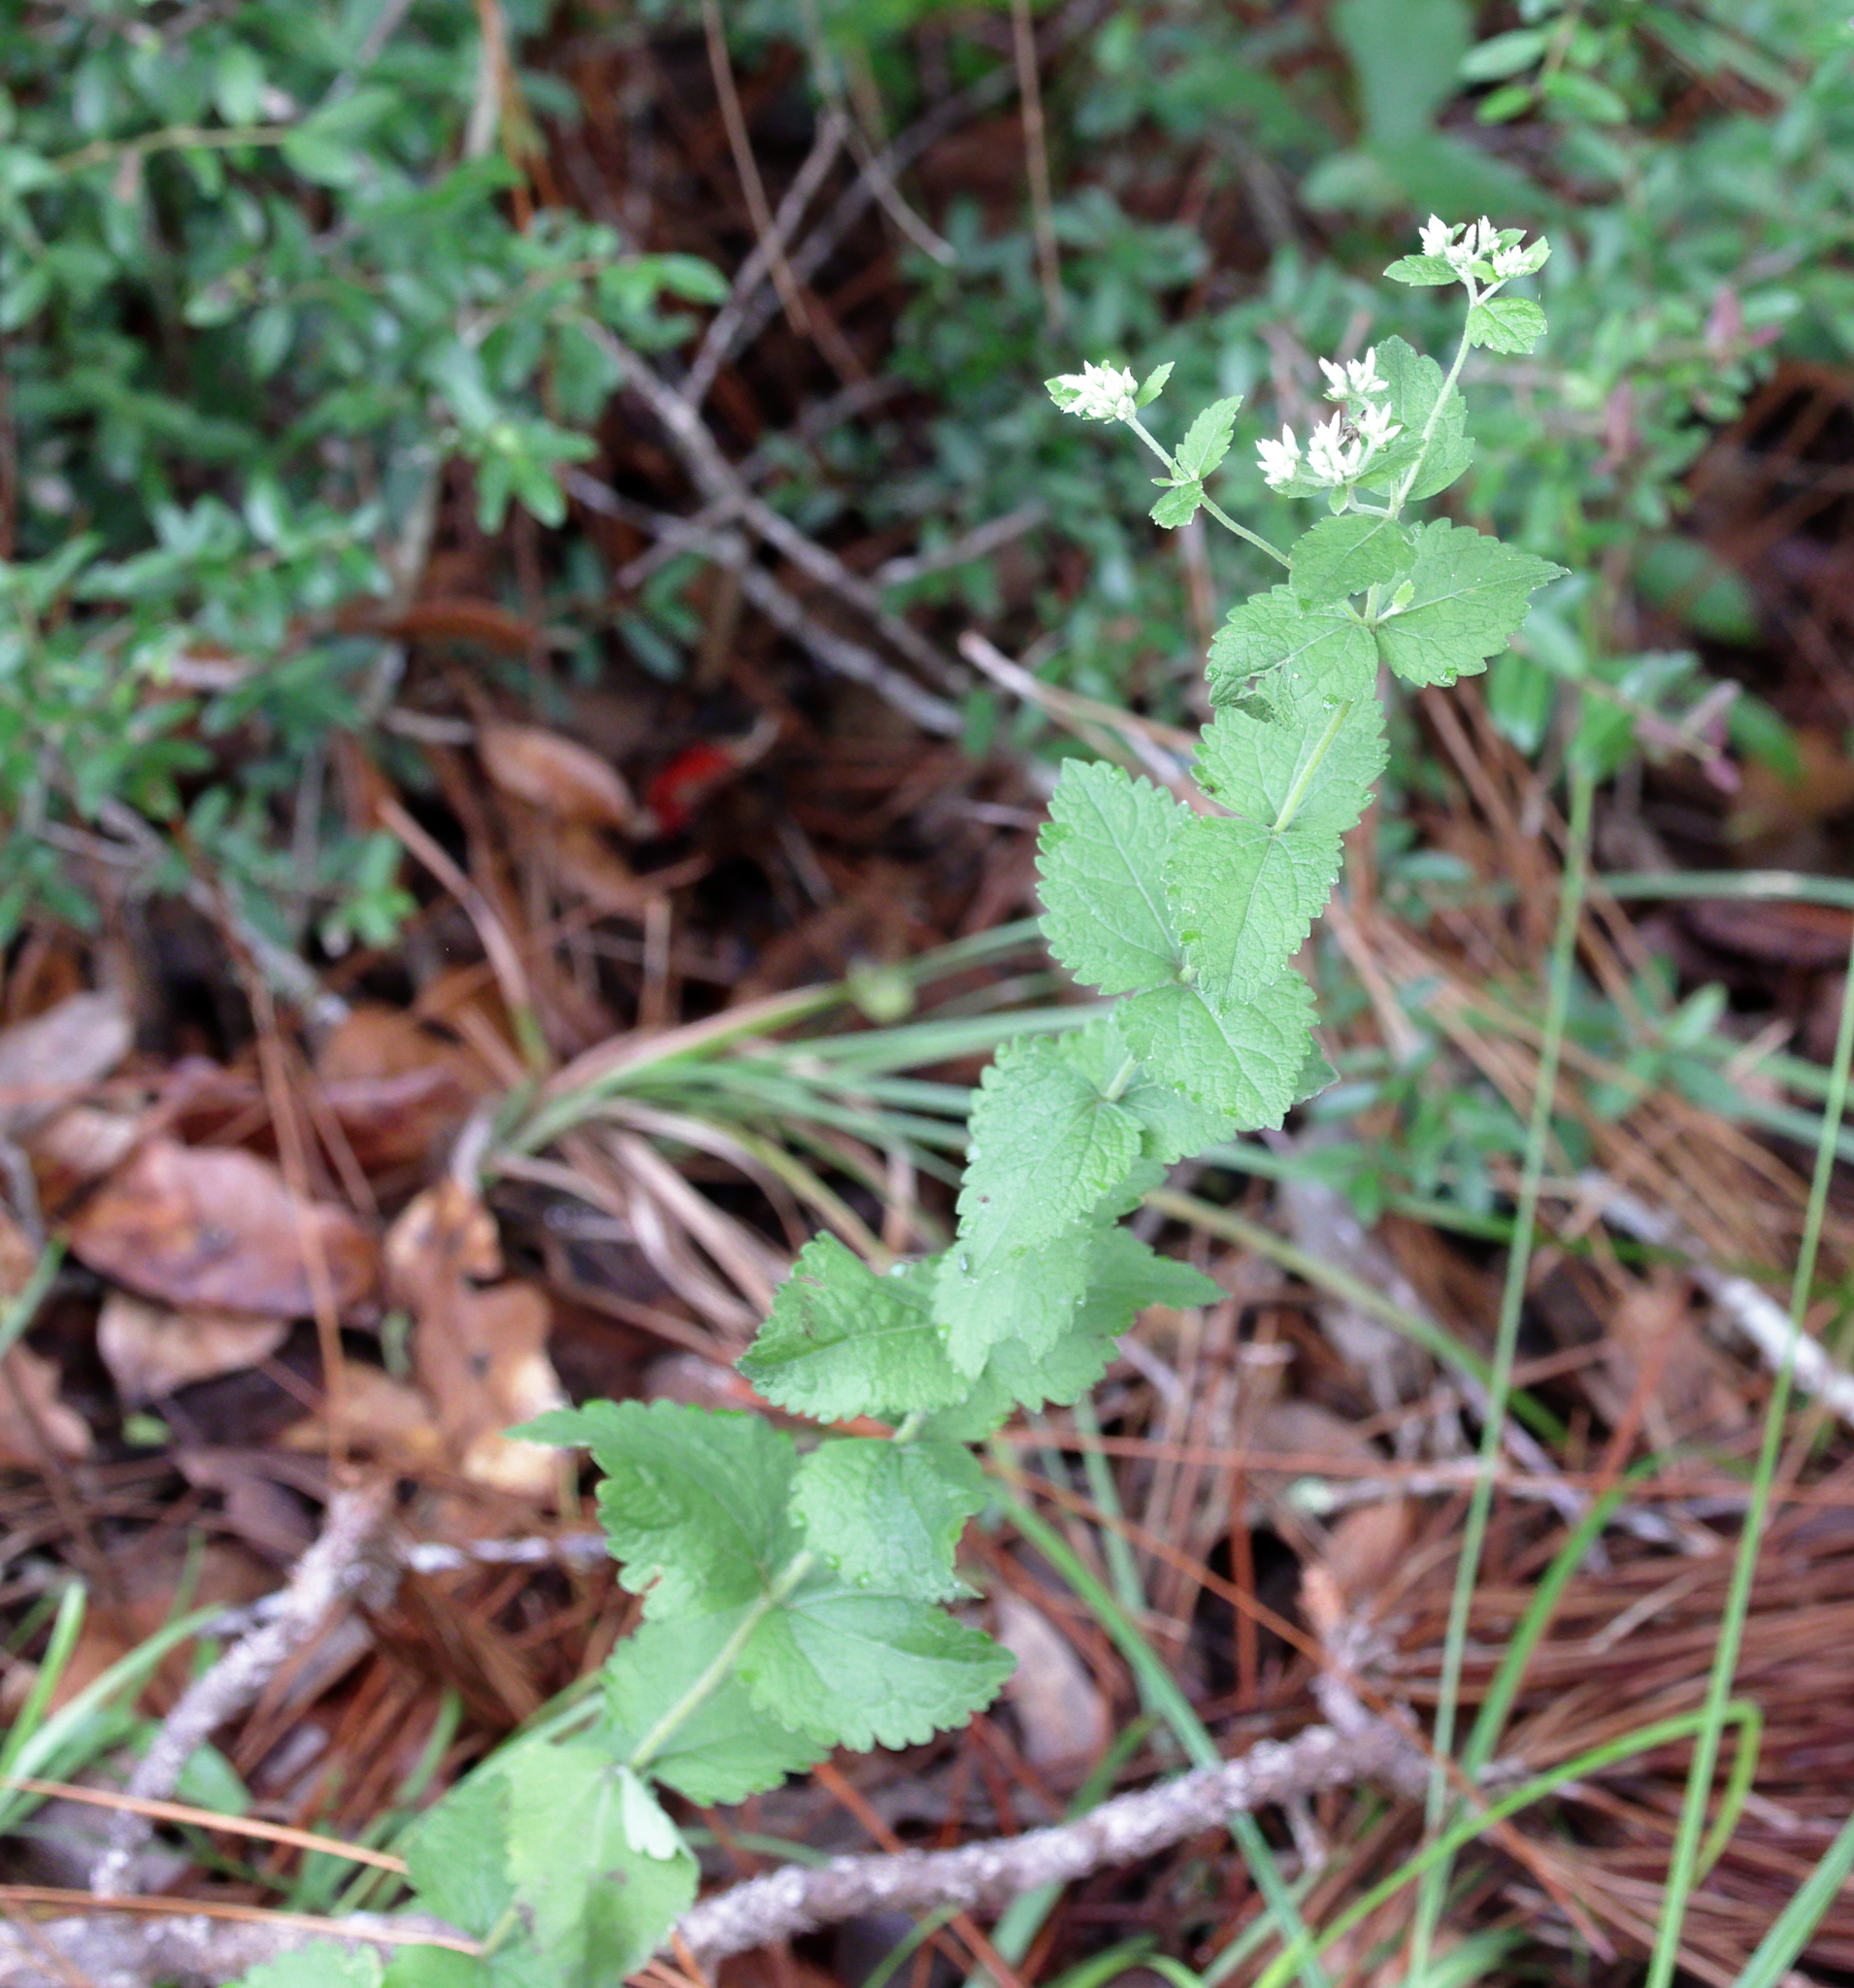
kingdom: Plantae
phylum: Tracheophyta
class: Magnoliopsida
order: Asterales
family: Asteraceae
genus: Eupatorium
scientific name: Eupatorium rotundifolium
